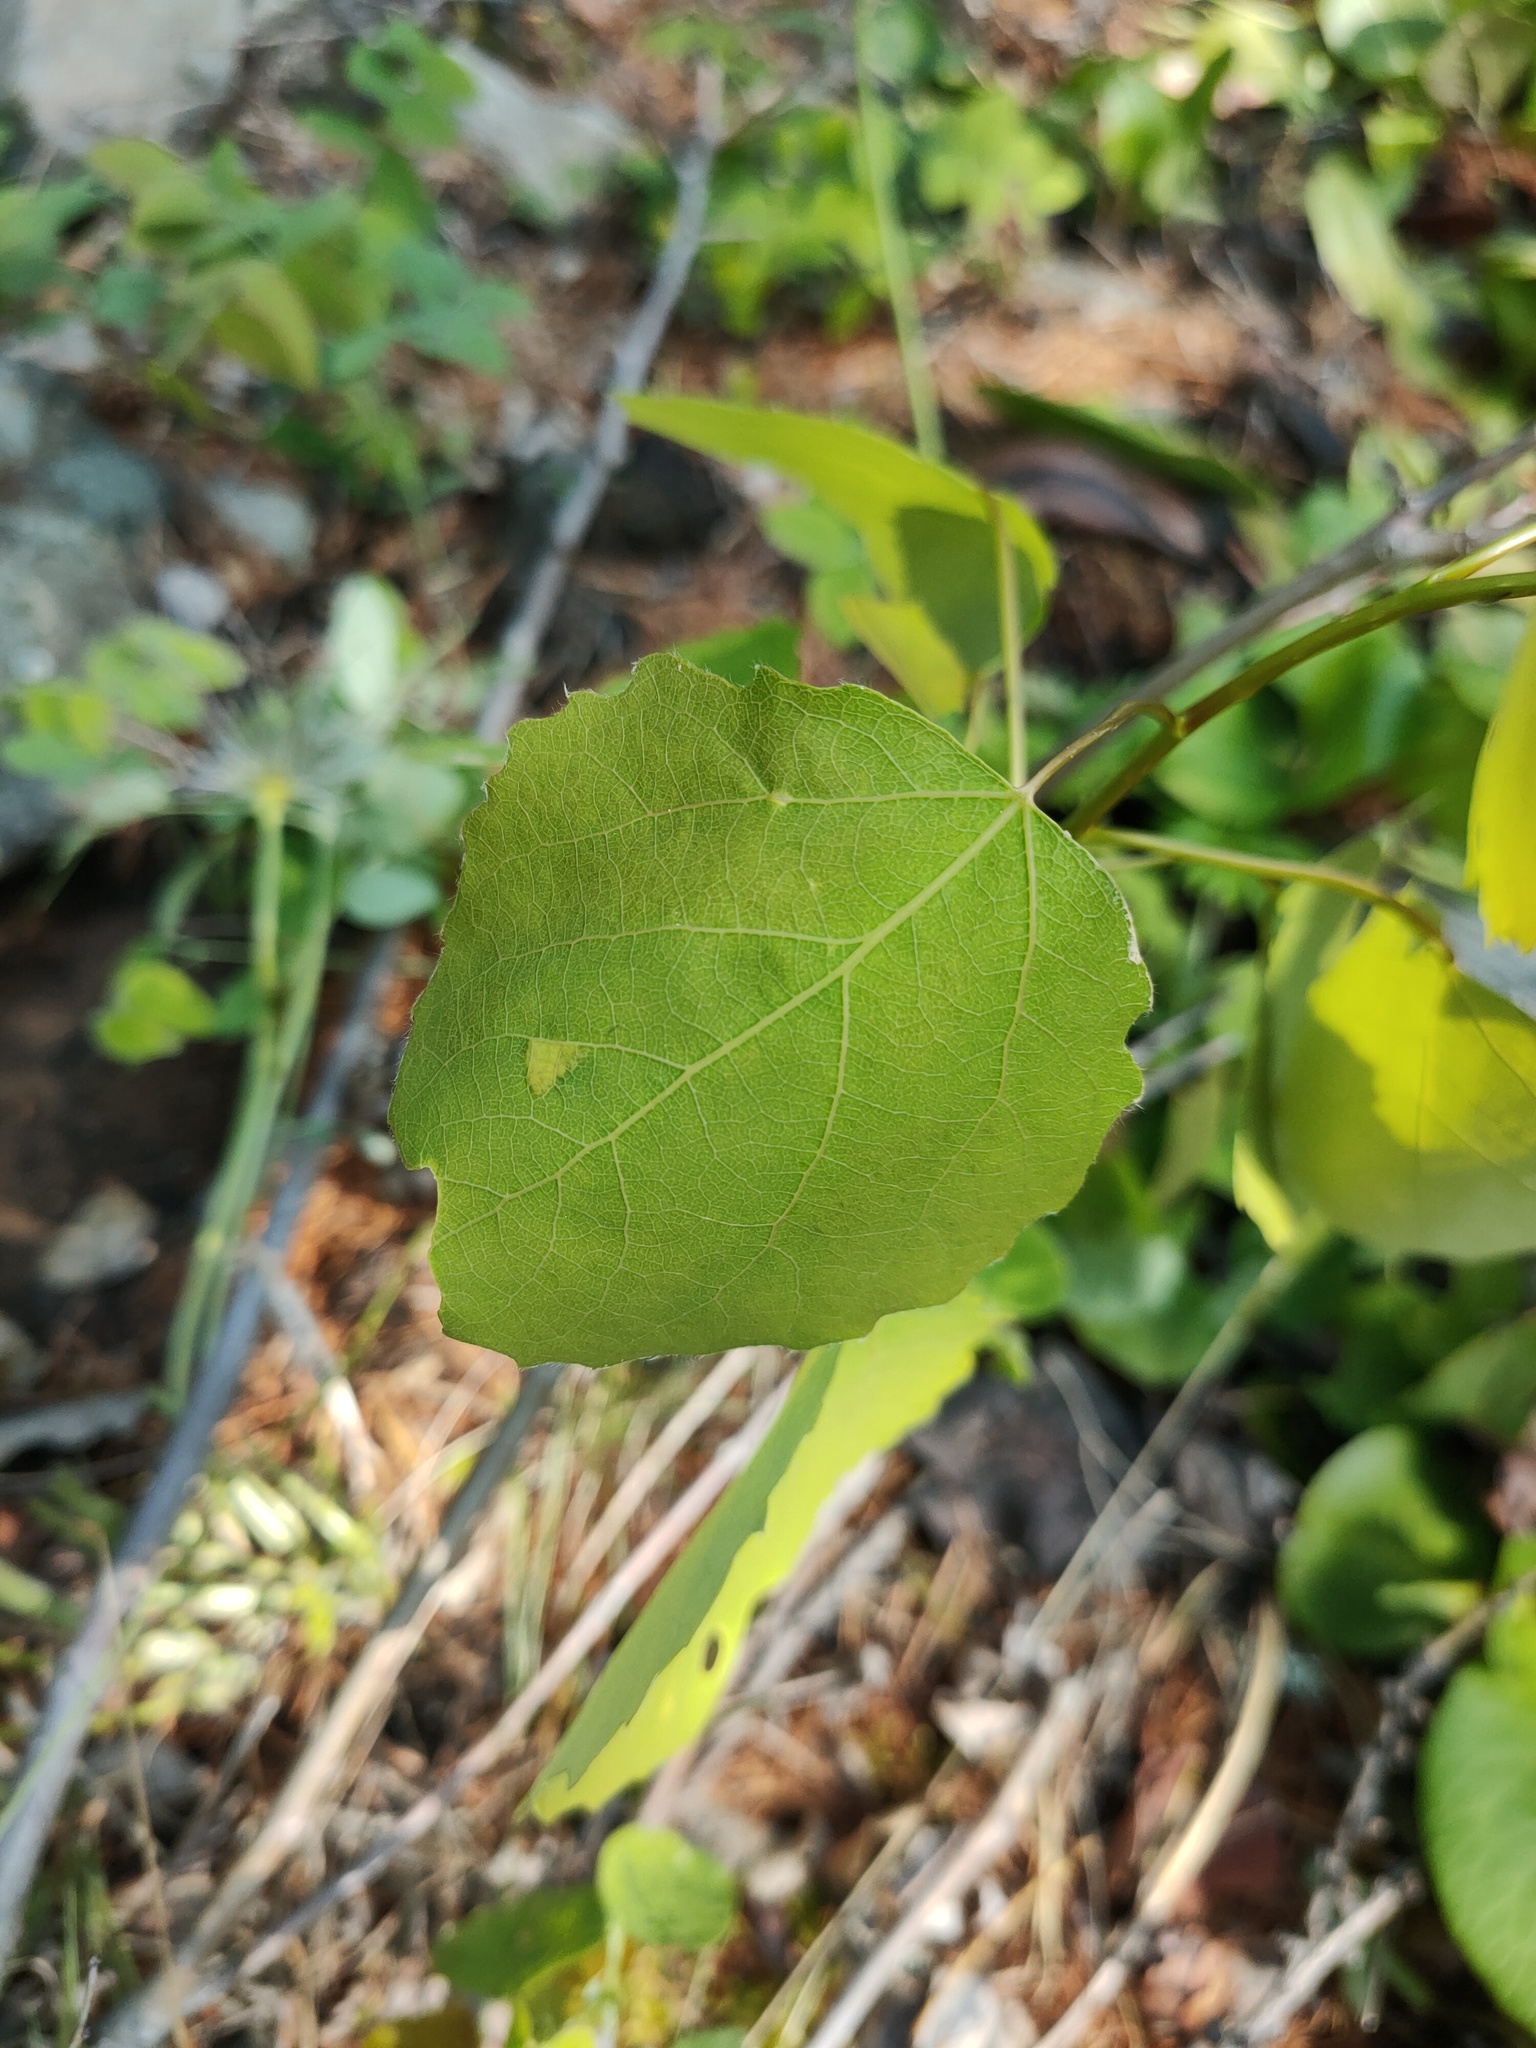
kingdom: Plantae
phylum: Tracheophyta
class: Magnoliopsida
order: Malpighiales
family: Salicaceae
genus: Populus
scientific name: Populus tremula
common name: European aspen
